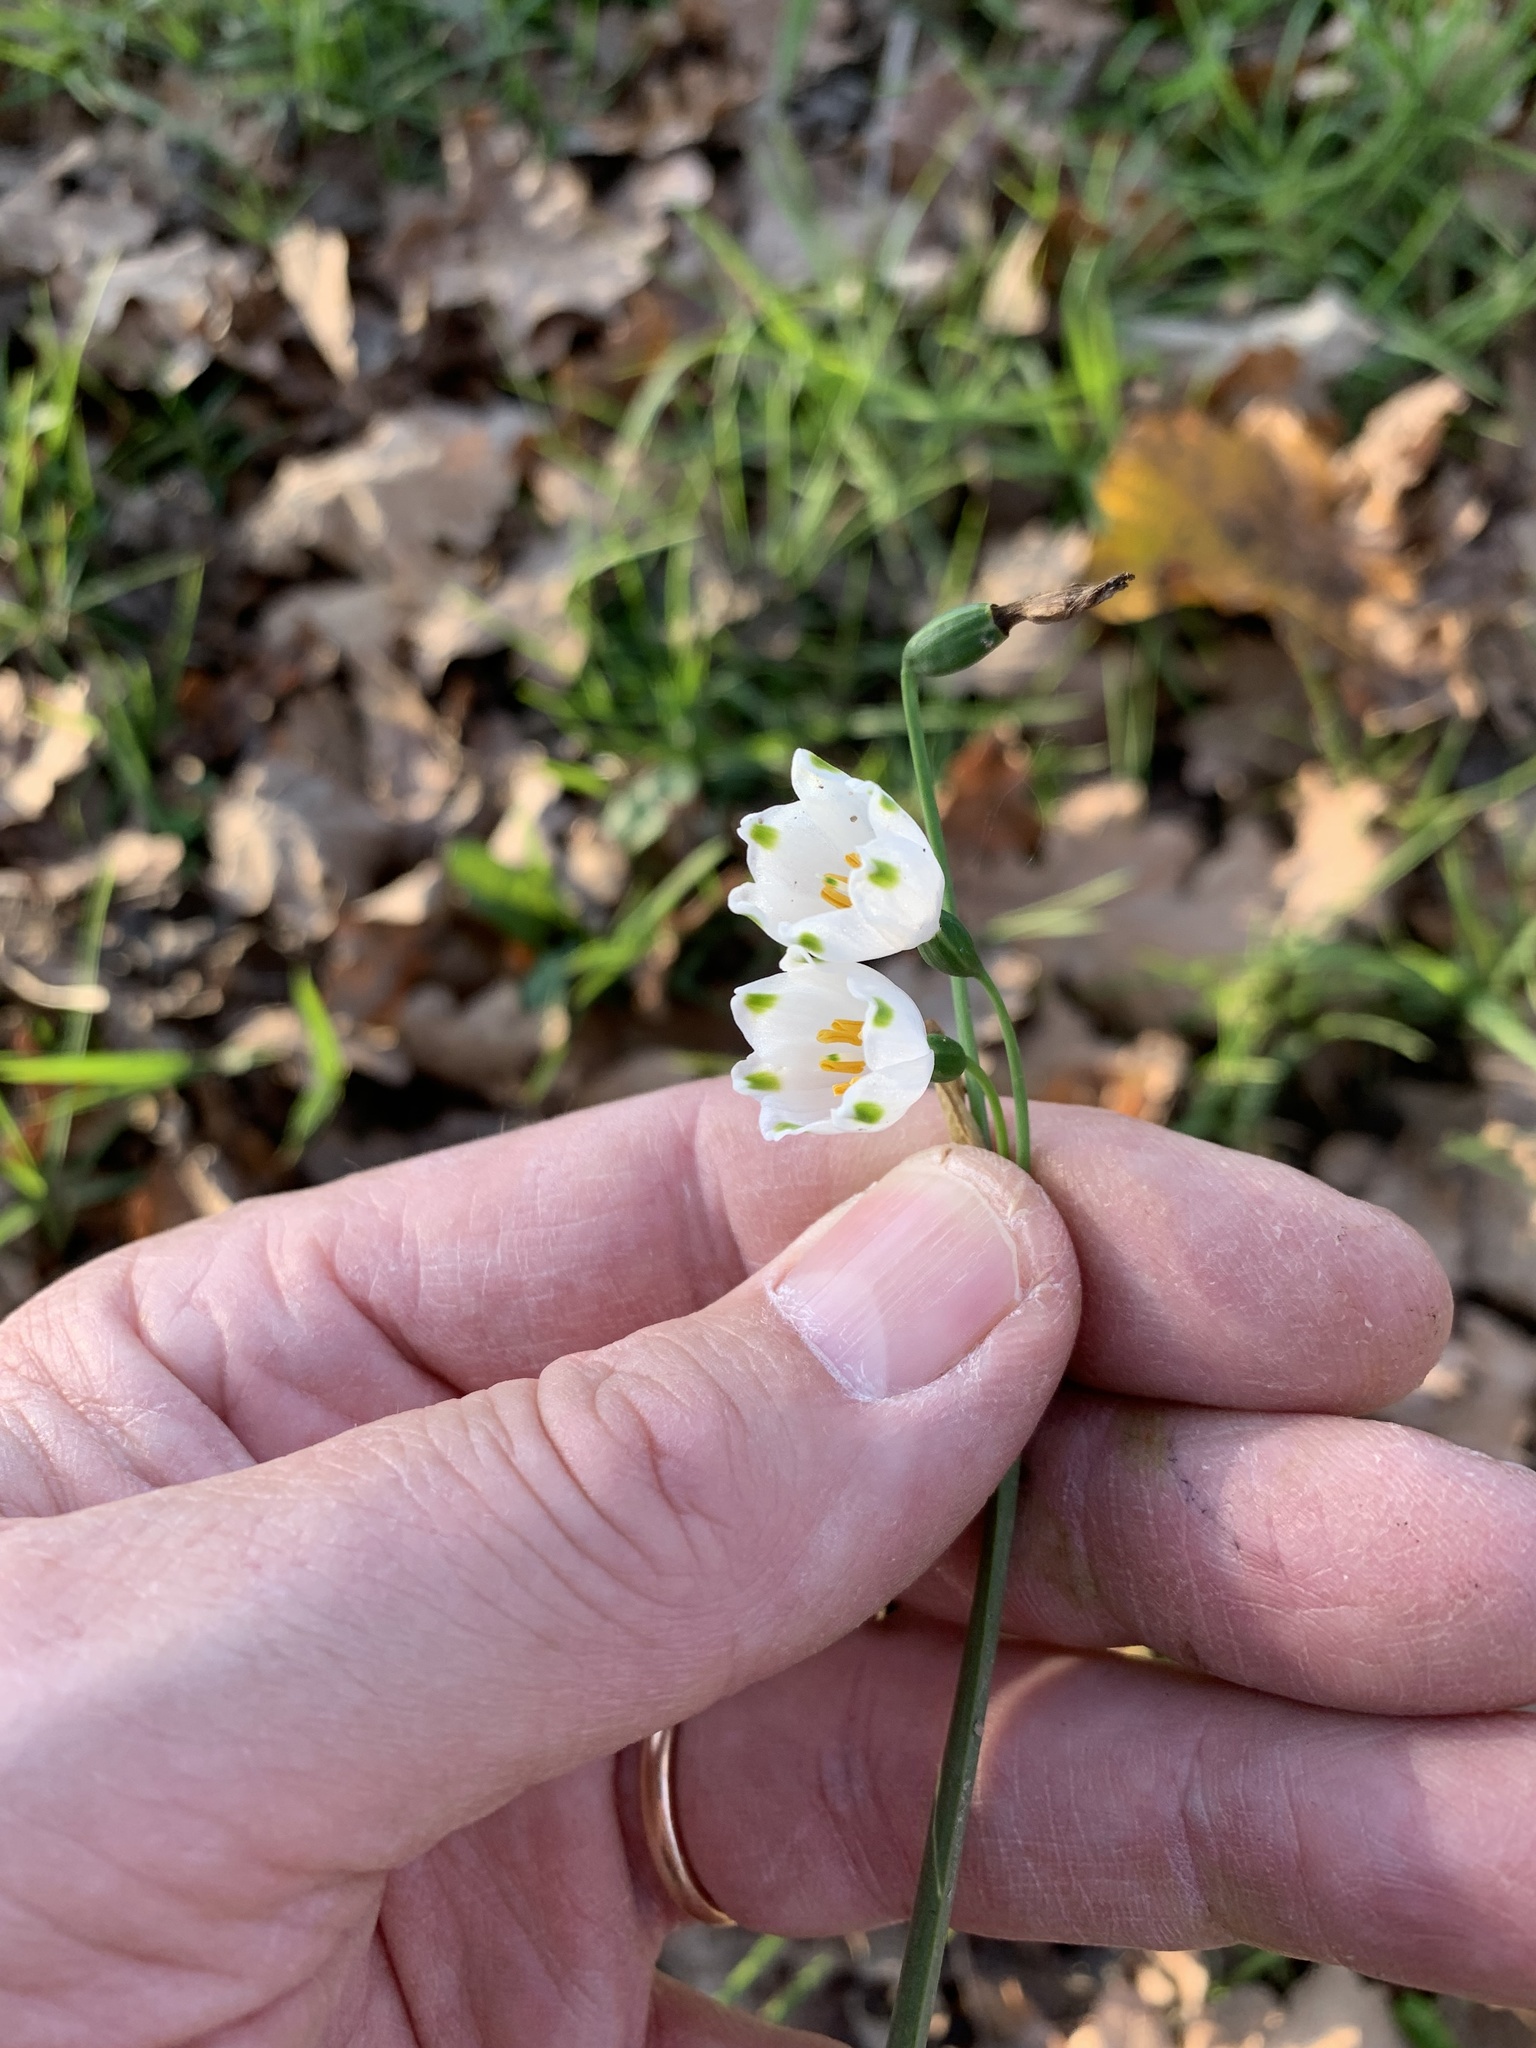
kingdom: Plantae
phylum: Tracheophyta
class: Liliopsida
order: Asparagales
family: Amaryllidaceae
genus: Leucojum
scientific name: Leucojum aestivum
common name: Summer snowflake
